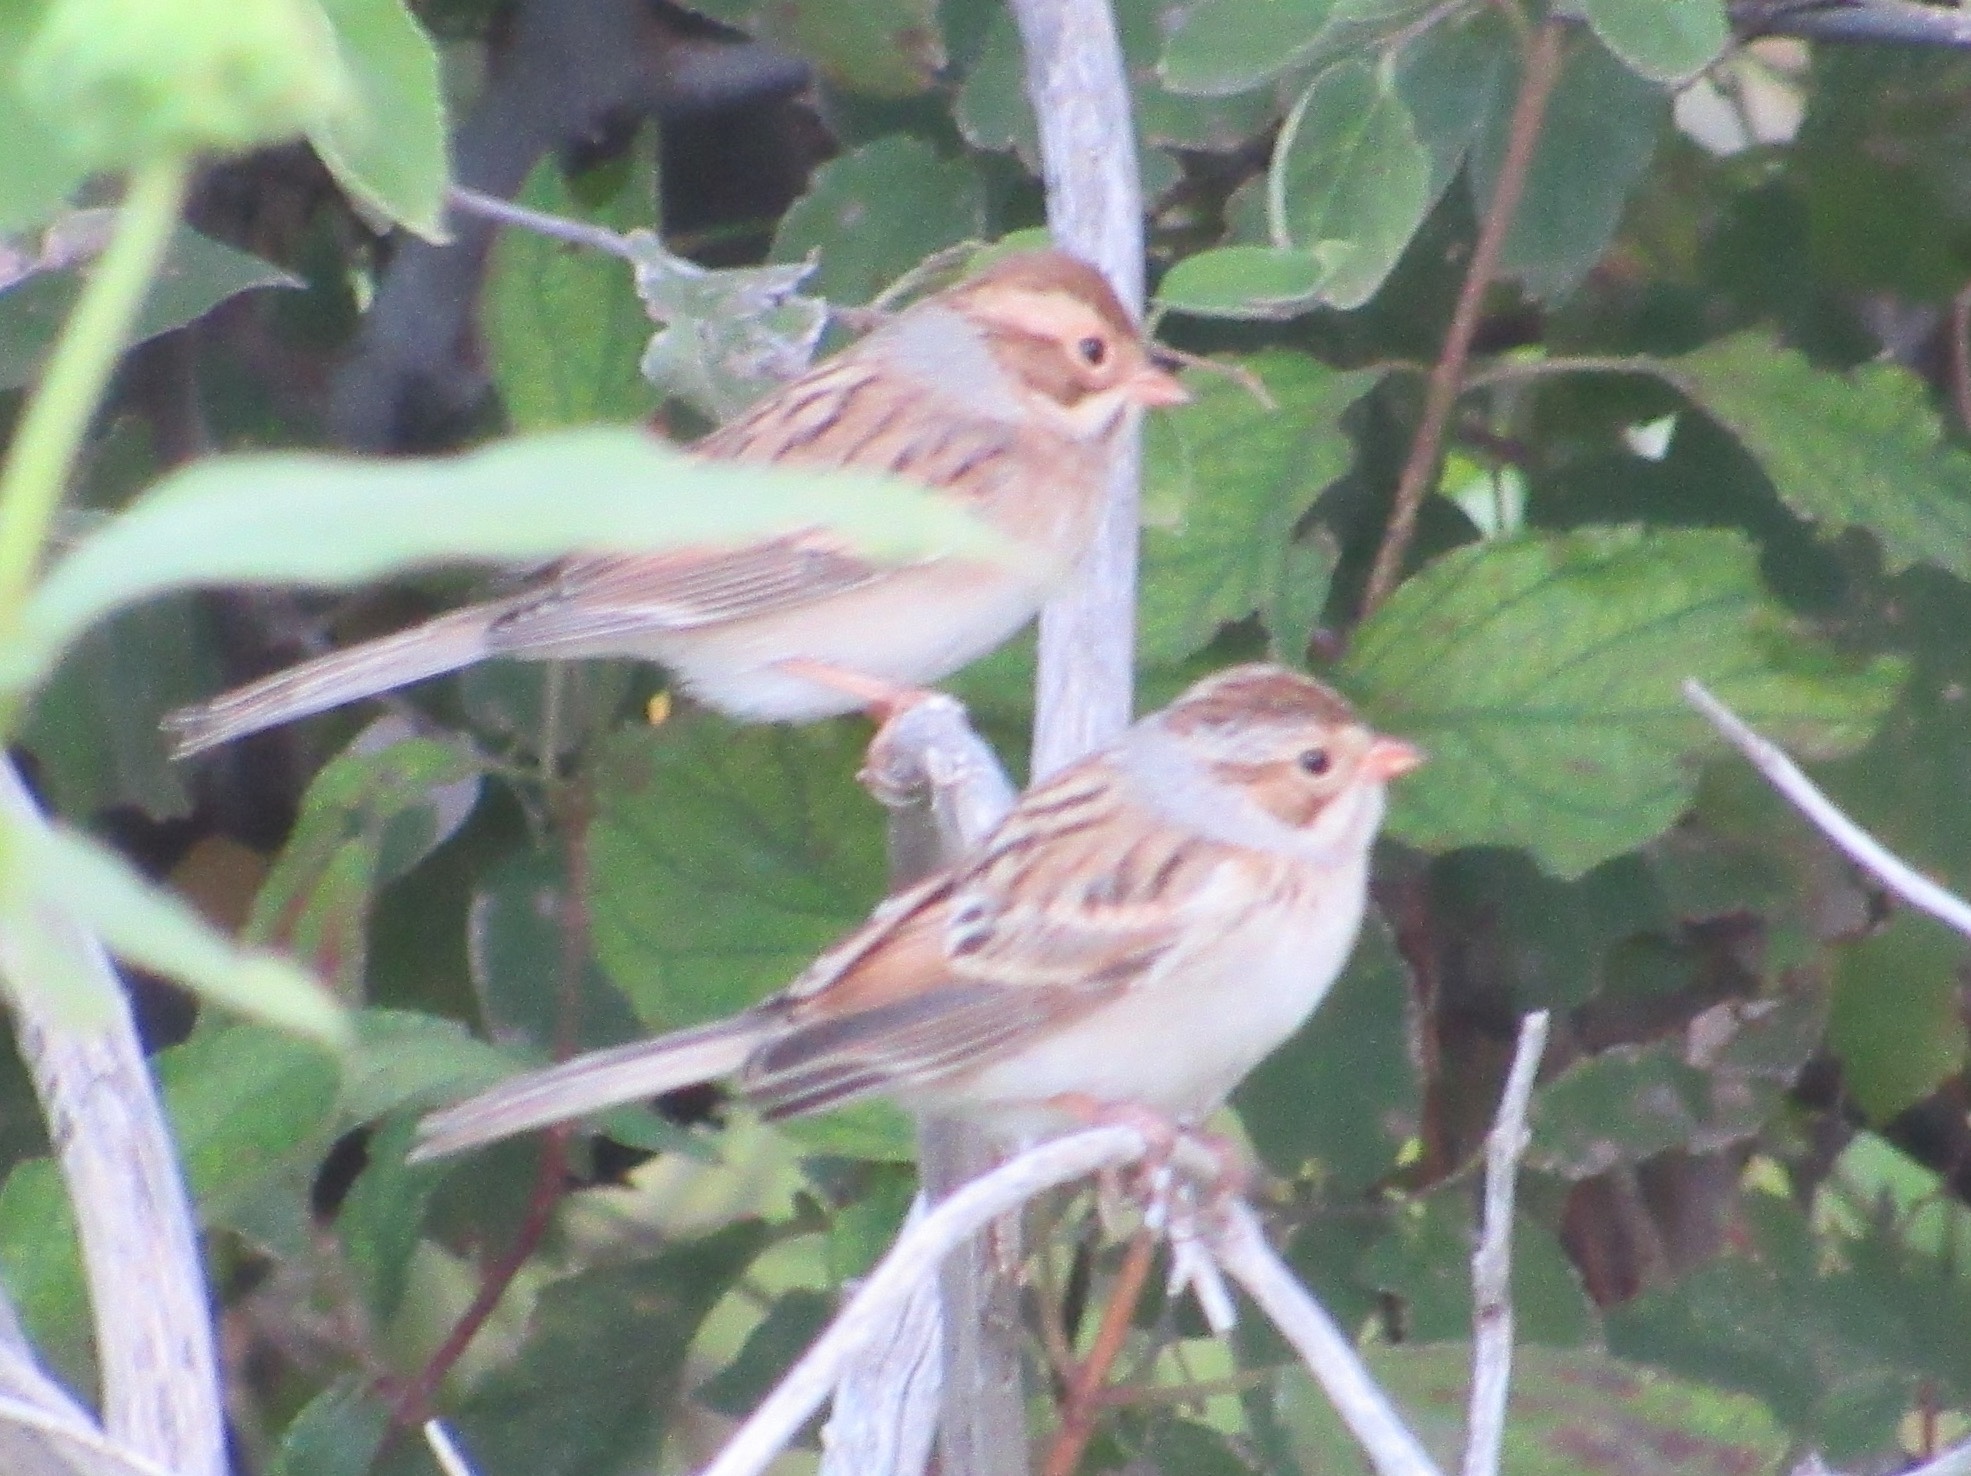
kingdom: Animalia
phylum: Chordata
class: Aves
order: Passeriformes
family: Passerellidae
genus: Spizella
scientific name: Spizella pallida
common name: Clay-colored sparrow
